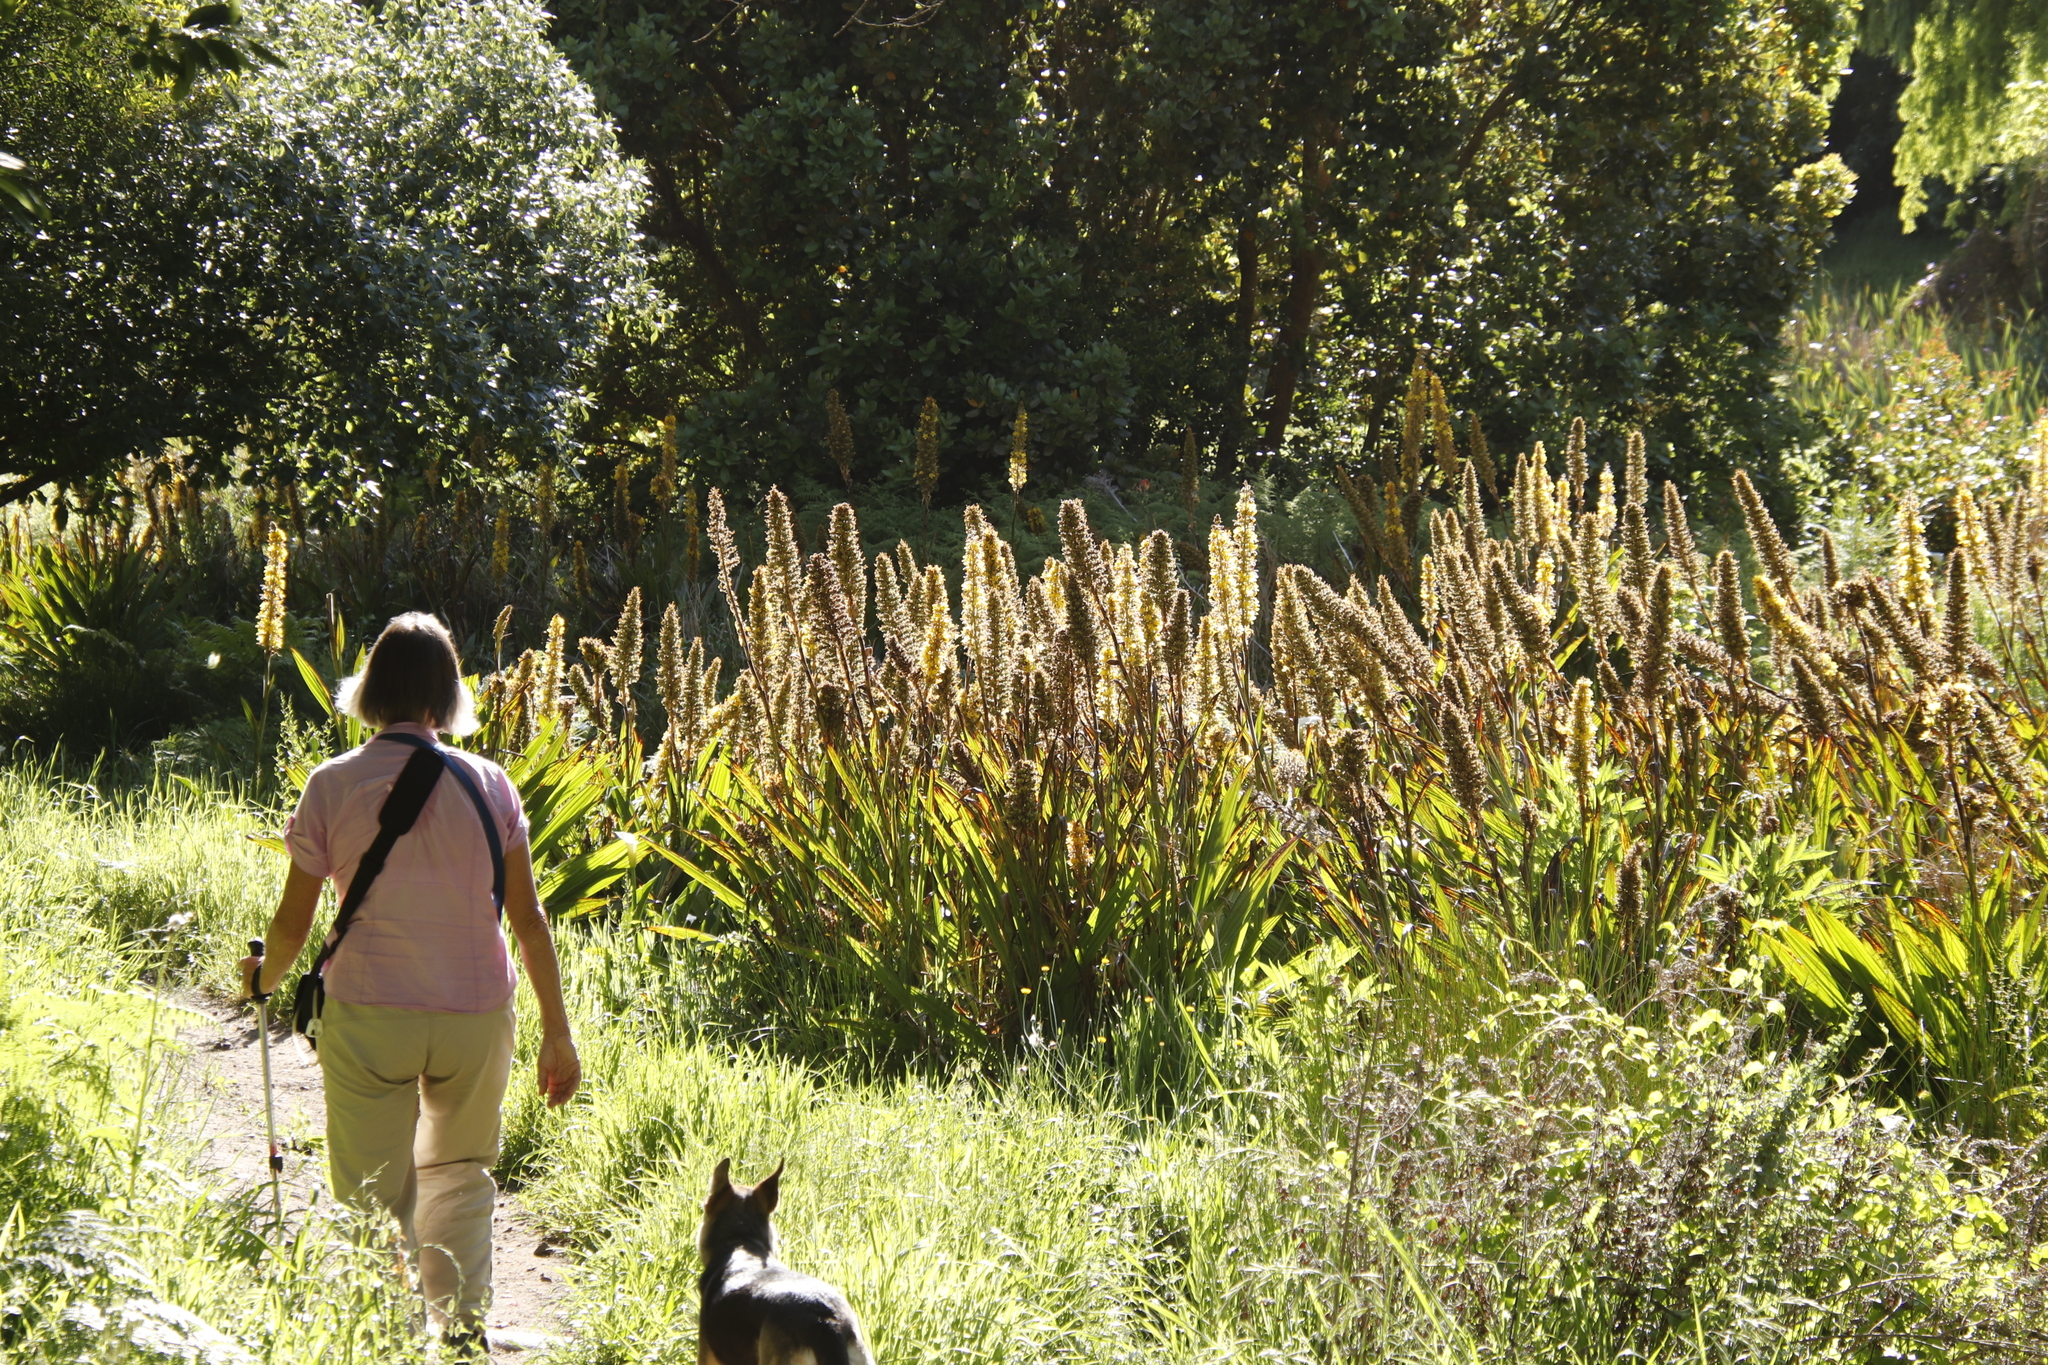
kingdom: Plantae
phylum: Tracheophyta
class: Liliopsida
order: Commelinales
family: Haemodoraceae
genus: Wachendorfia
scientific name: Wachendorfia thyrsiflora
